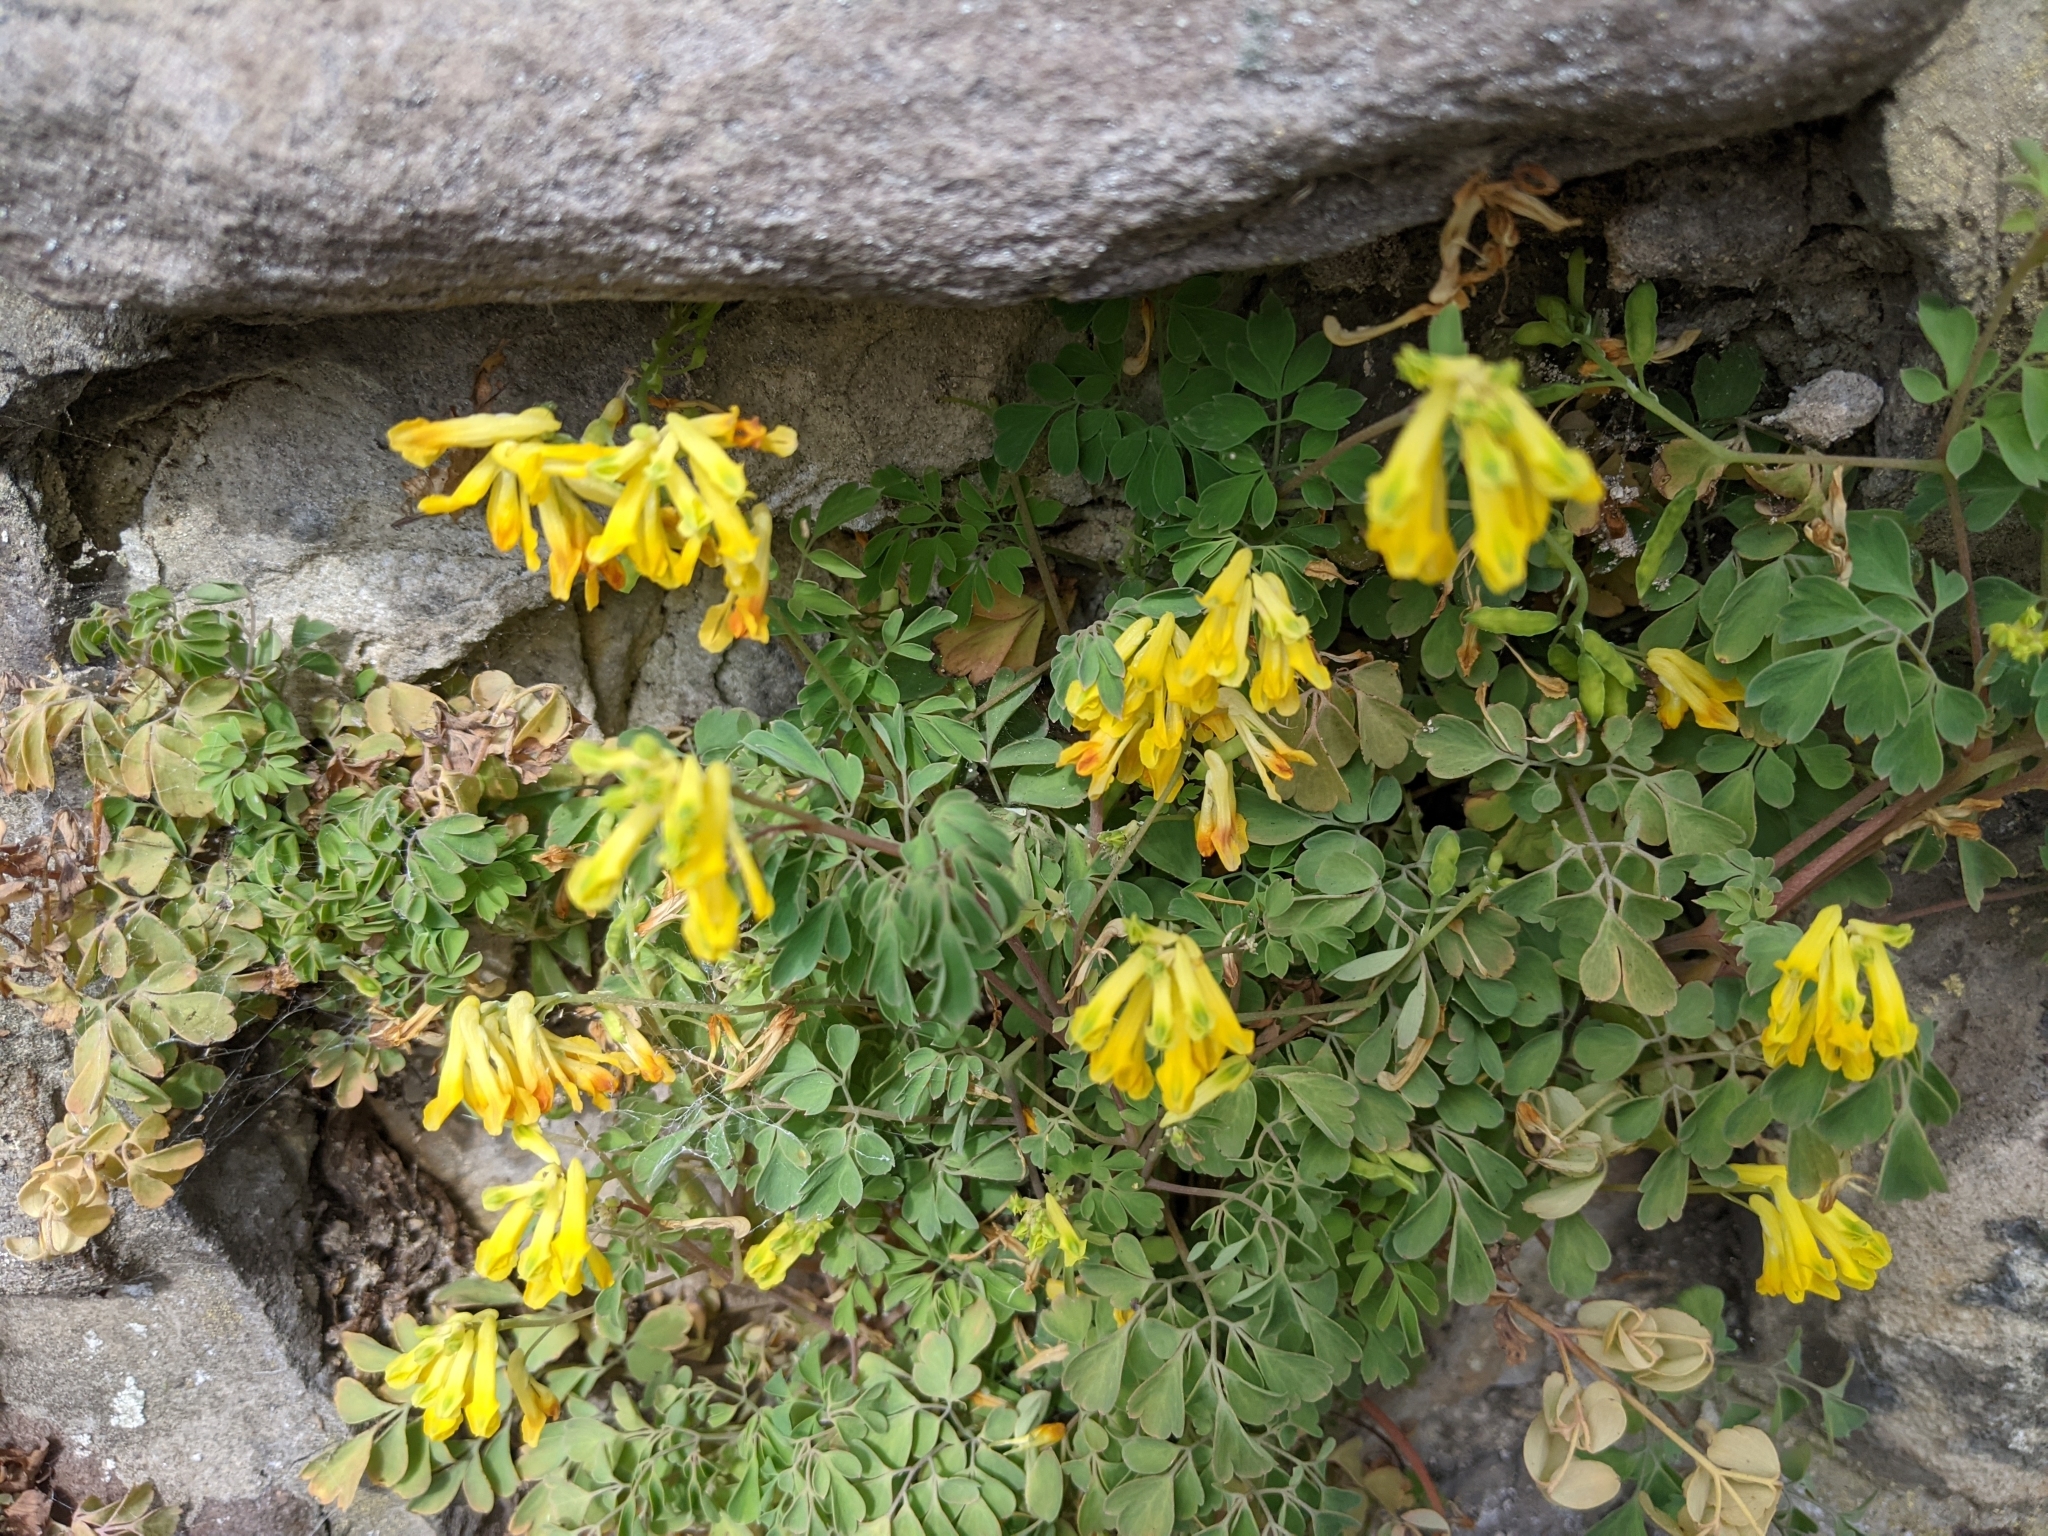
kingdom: Plantae
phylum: Tracheophyta
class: Magnoliopsida
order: Ranunculales
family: Papaveraceae
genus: Pseudofumaria
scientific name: Pseudofumaria lutea
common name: Yellow corydalis
